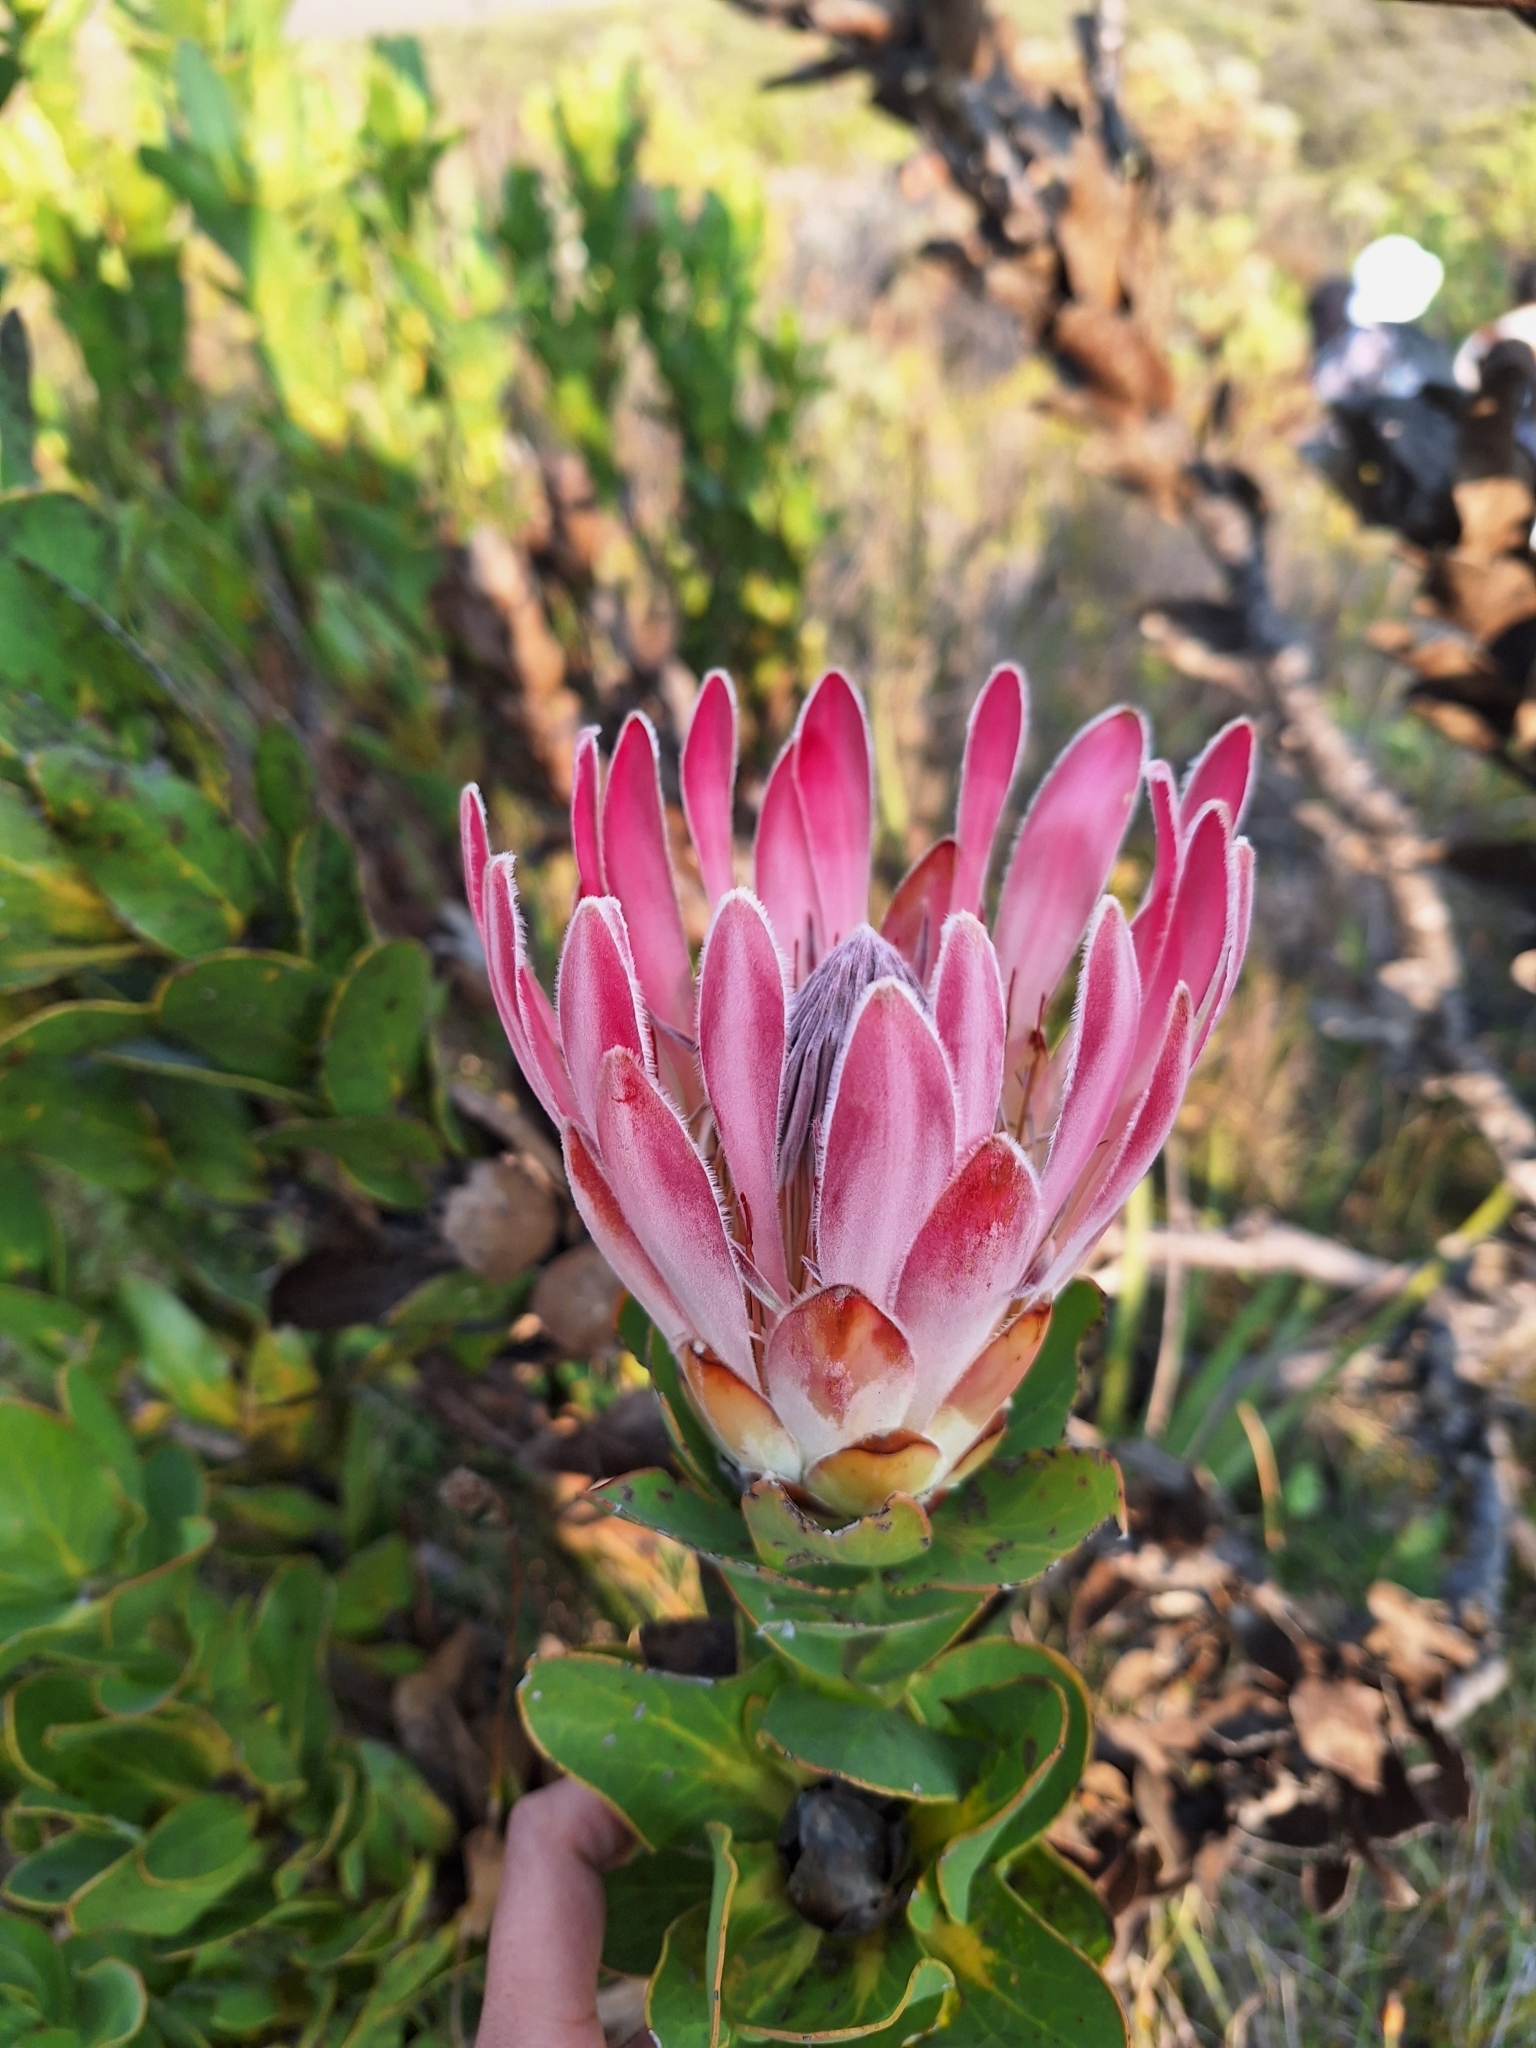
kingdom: Plantae
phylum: Tracheophyta
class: Magnoliopsida
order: Proteales
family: Proteaceae
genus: Protea
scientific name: Protea compacta
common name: Bot river protea
